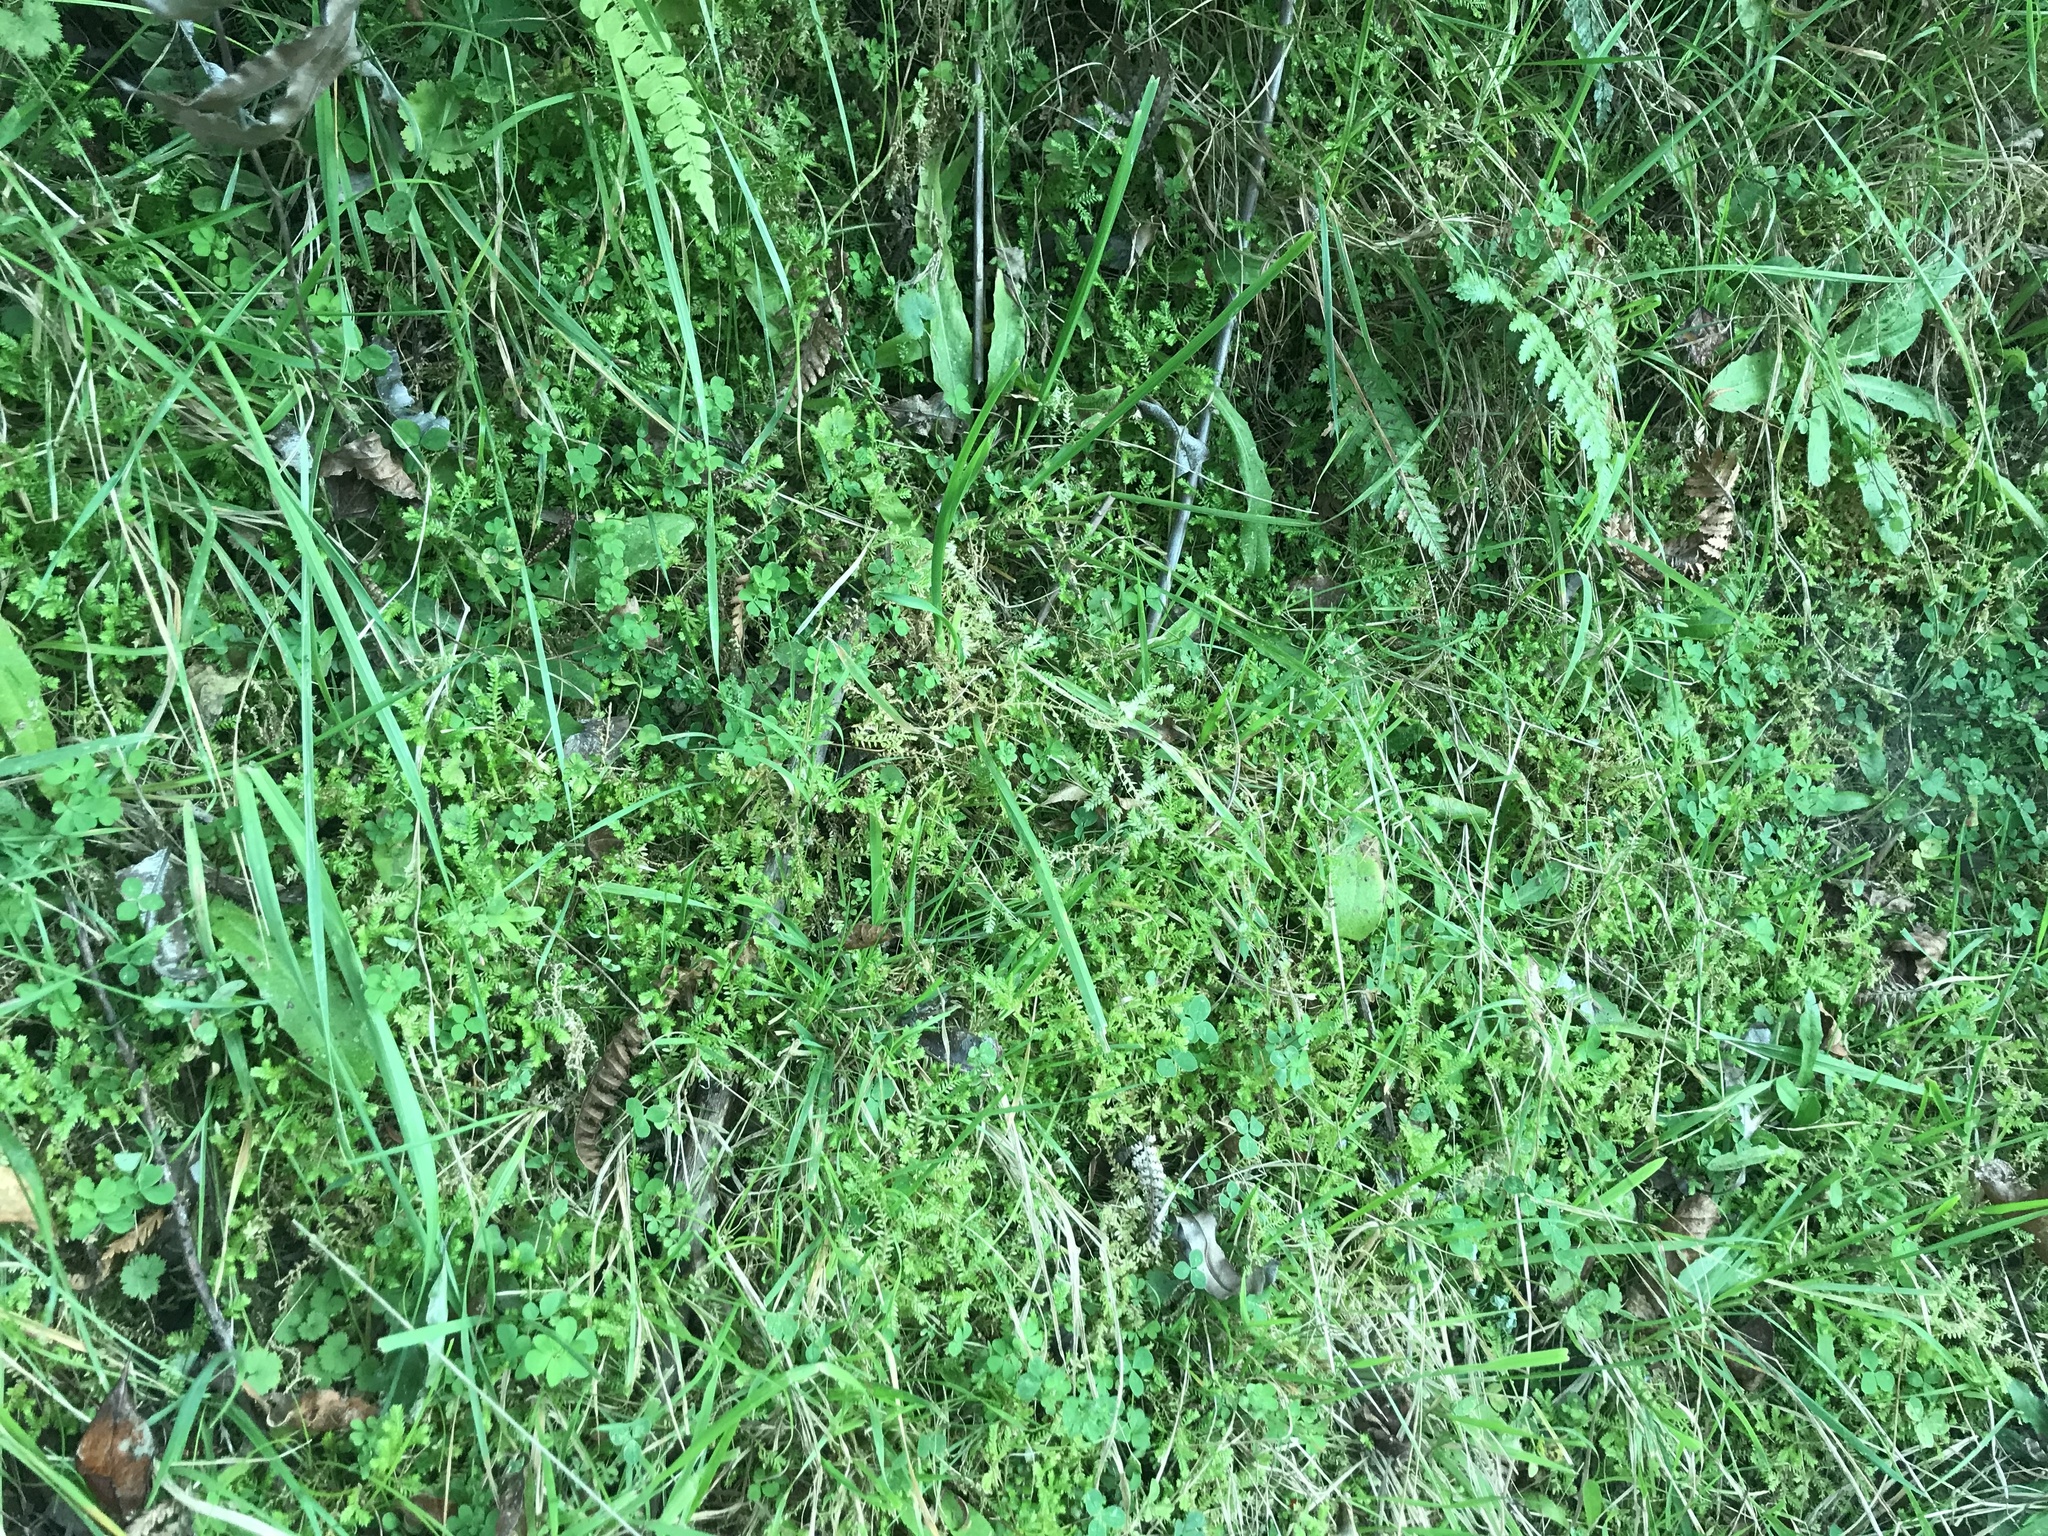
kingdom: Plantae
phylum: Tracheophyta
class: Lycopodiopsida
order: Selaginellales
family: Selaginellaceae
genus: Selaginella
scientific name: Selaginella kraussiana
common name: Krauss' spikemoss
